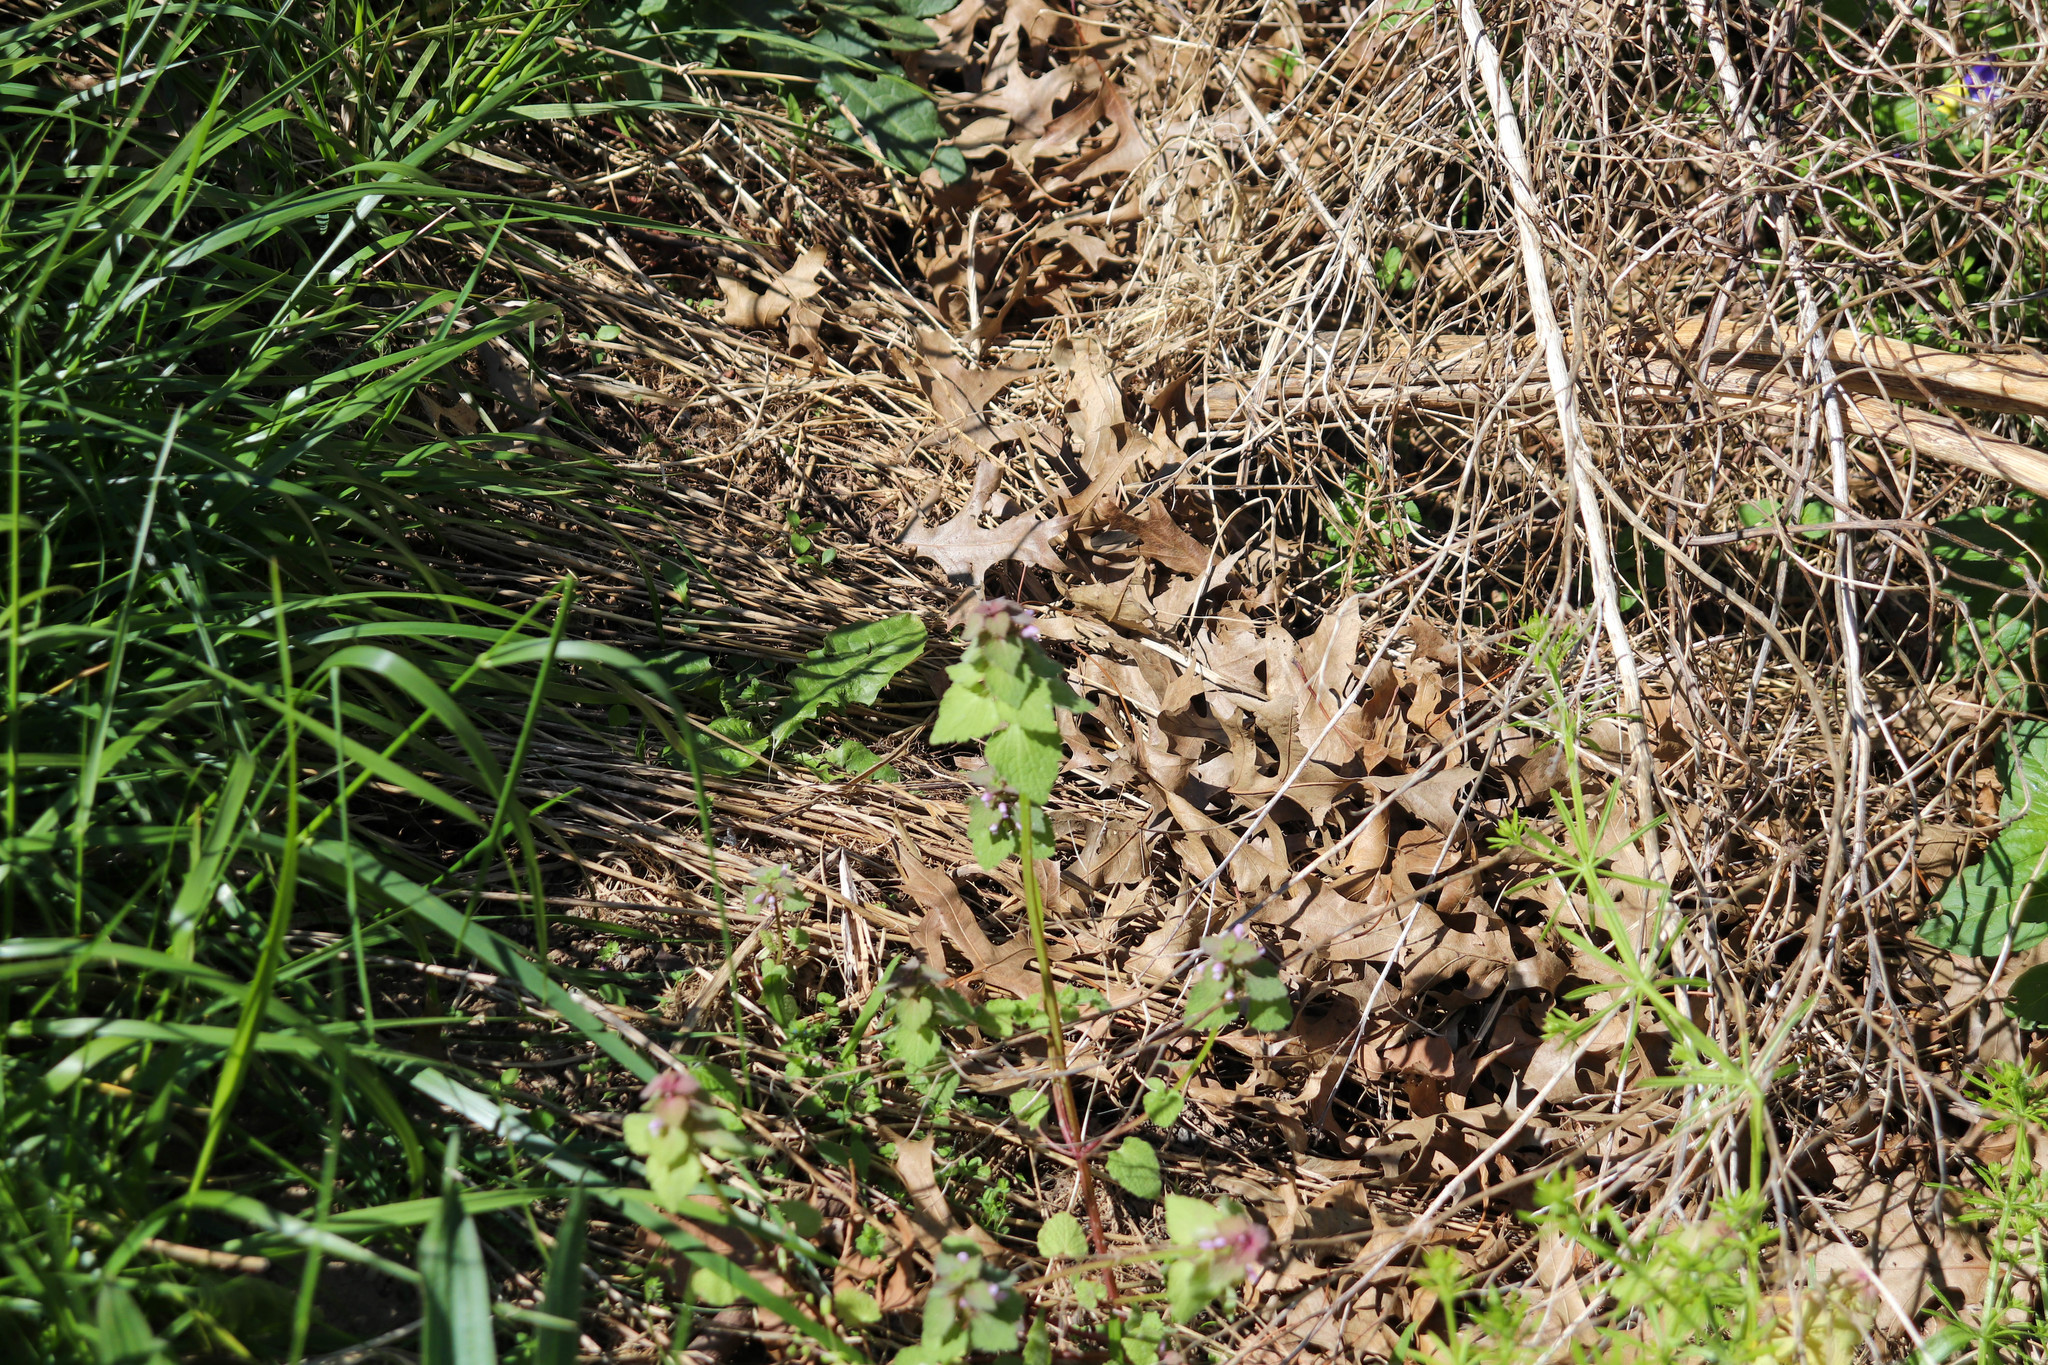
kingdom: Plantae
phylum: Tracheophyta
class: Magnoliopsida
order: Lamiales
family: Lamiaceae
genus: Lamium
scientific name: Lamium purpureum
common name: Red dead-nettle
